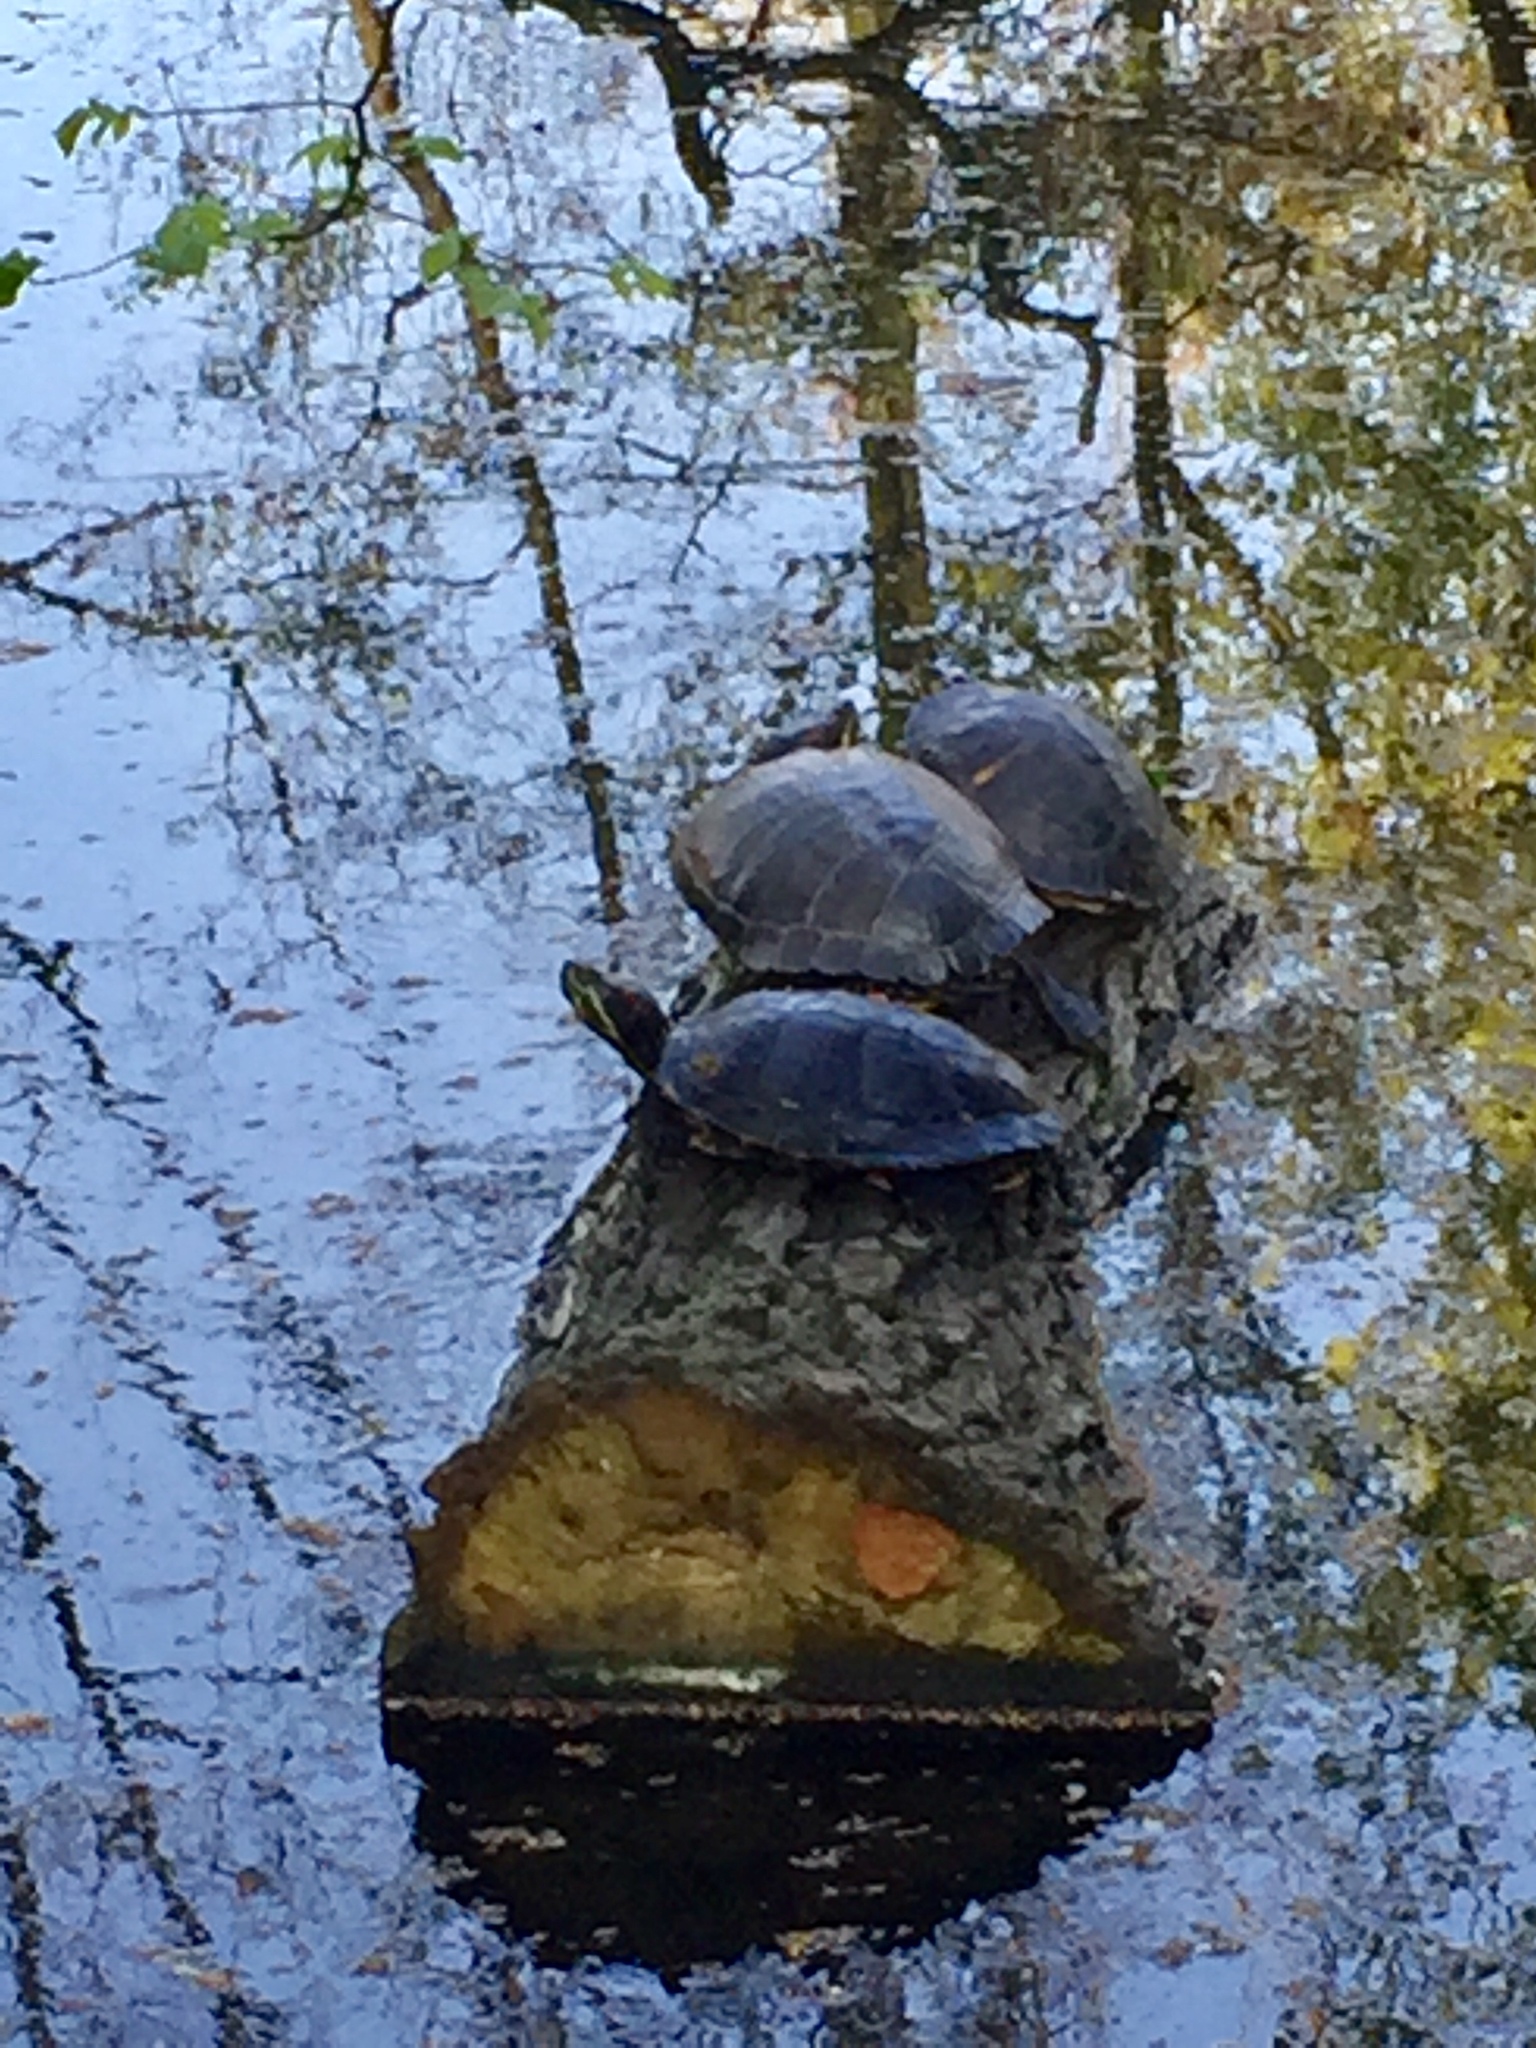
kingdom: Animalia
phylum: Chordata
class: Testudines
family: Emydidae
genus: Trachemys
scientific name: Trachemys scripta
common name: Slider
